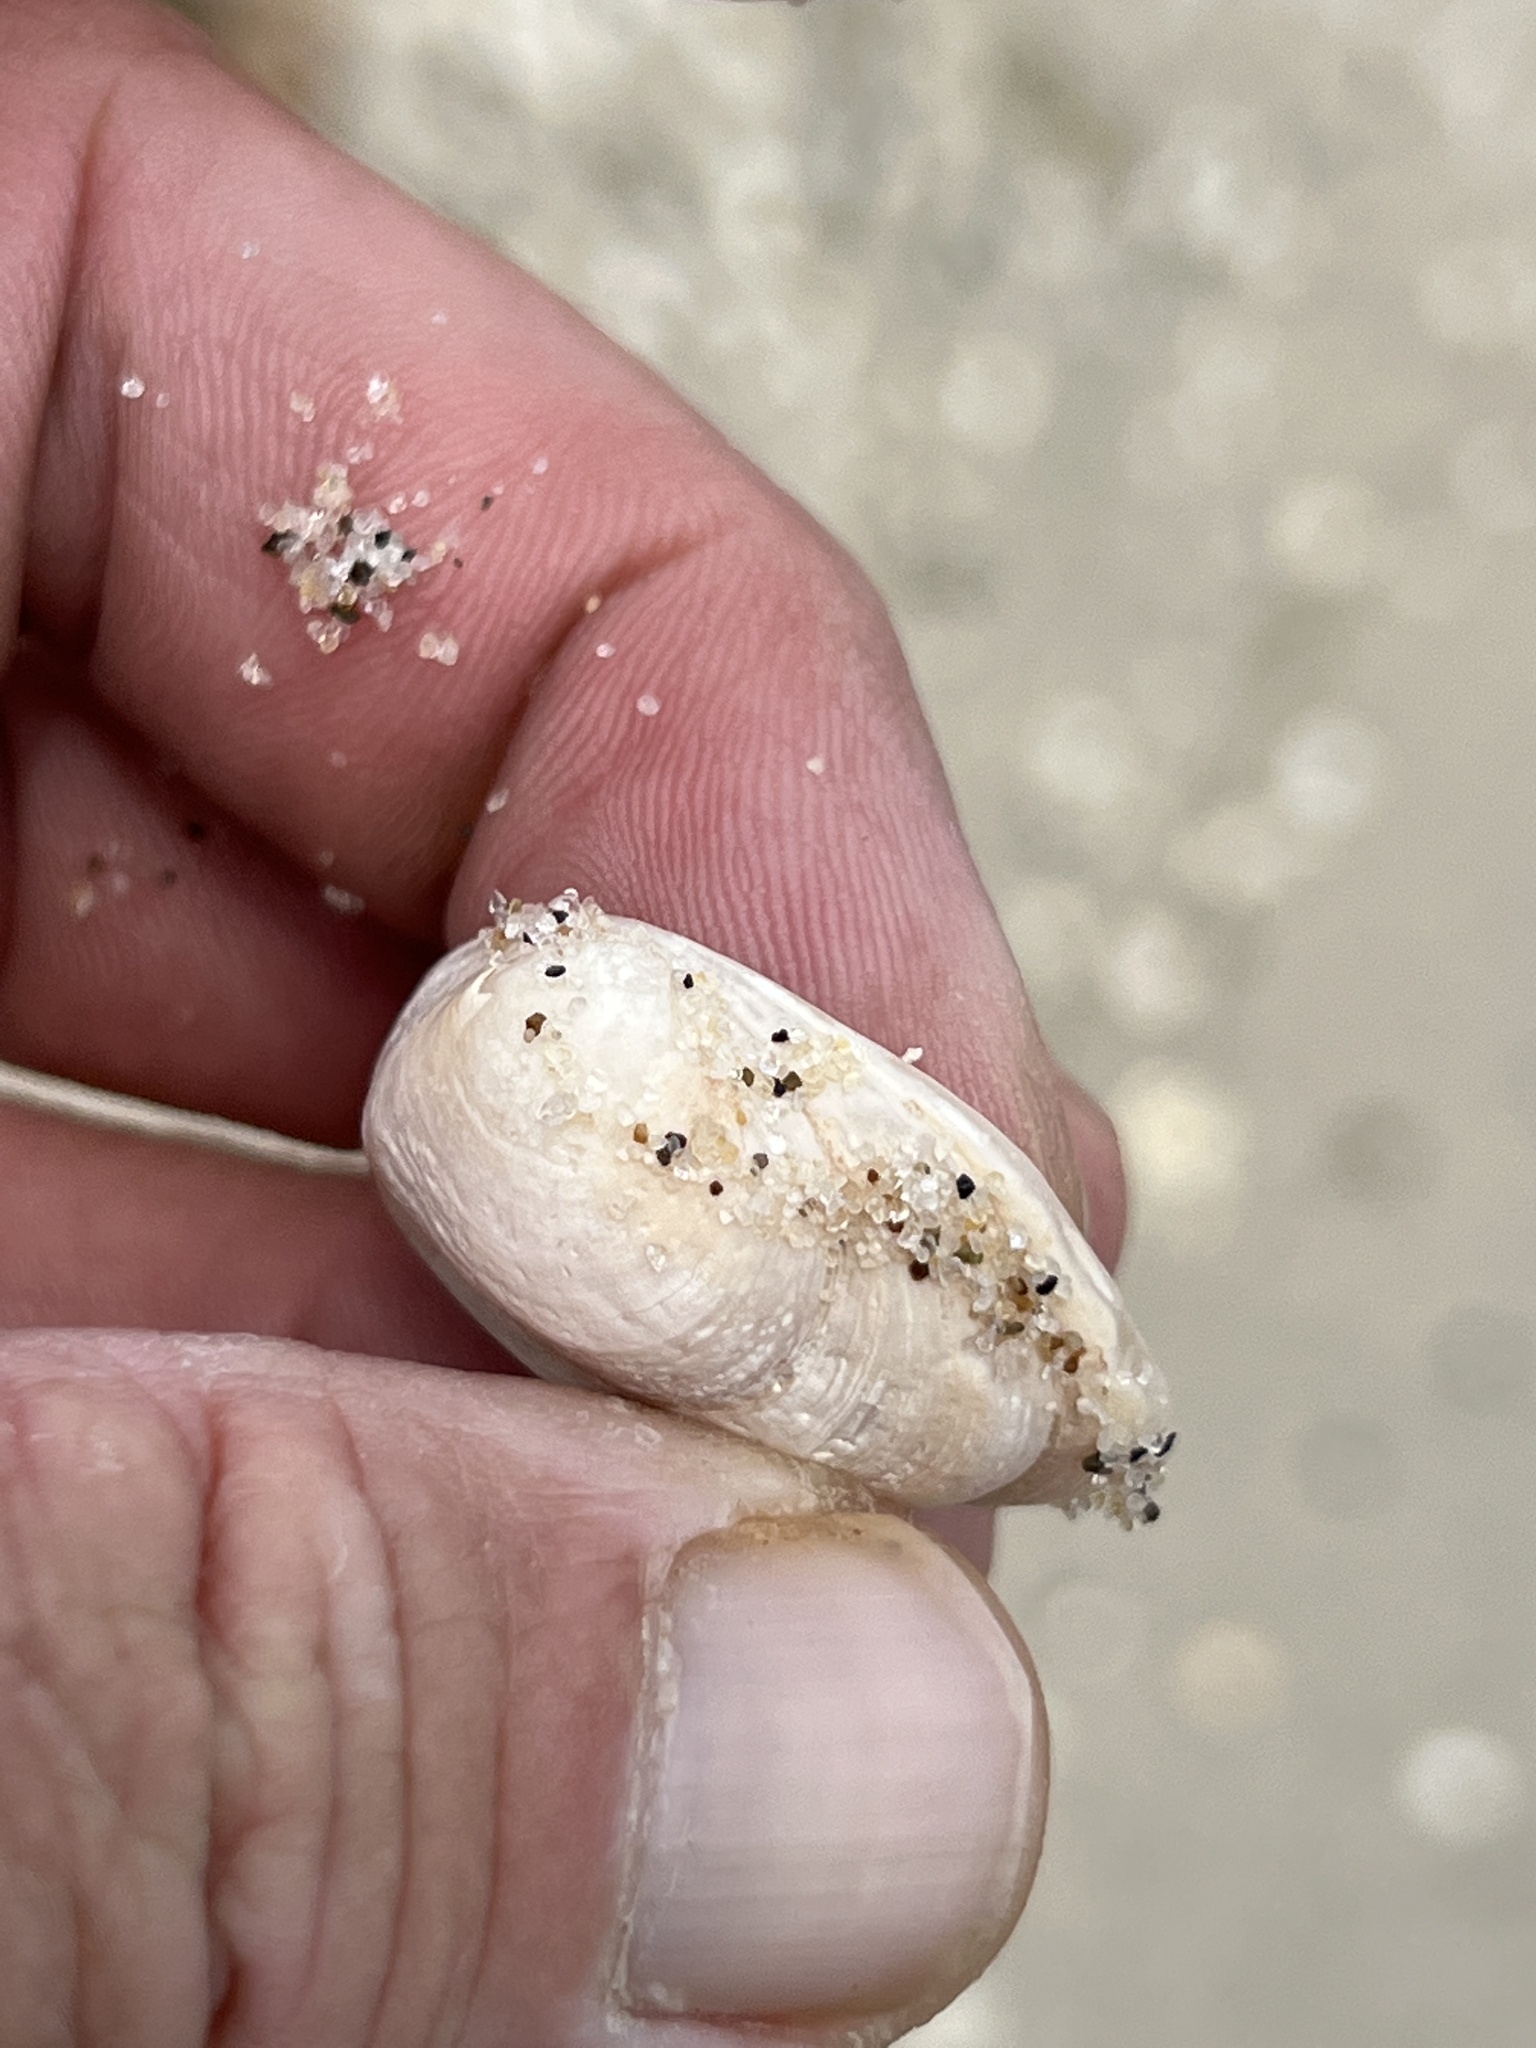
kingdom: Animalia
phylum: Mollusca
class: Bivalvia
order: Venerida
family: Mactridae
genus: Rangia
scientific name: Rangia cuneata
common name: Atlantic rangia
